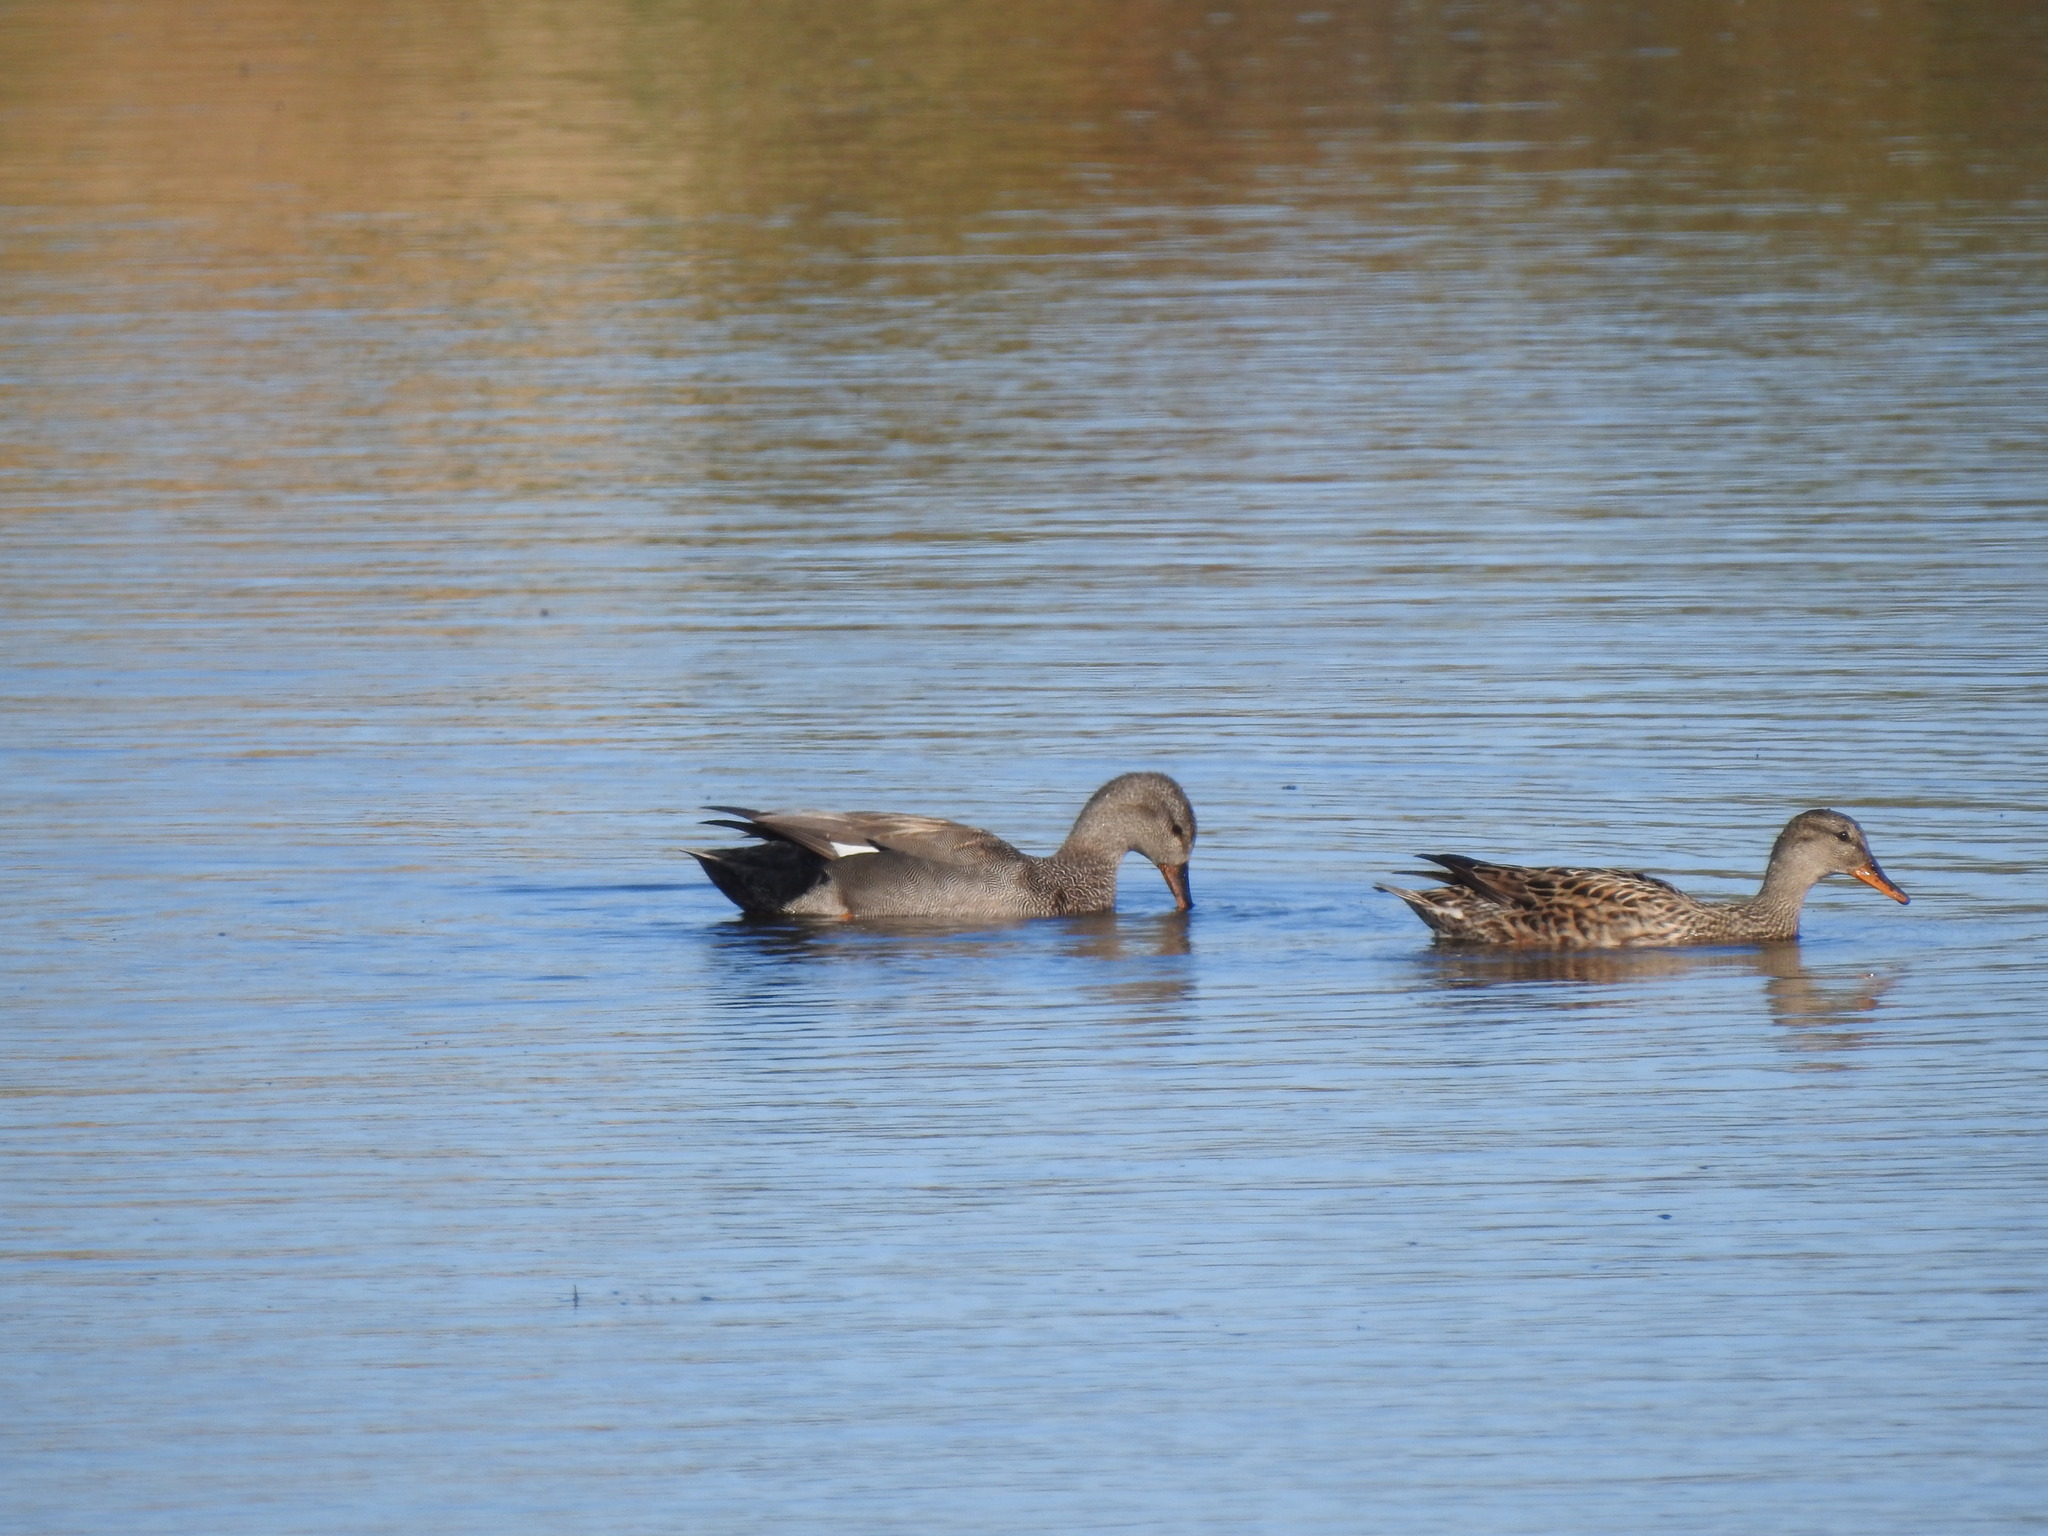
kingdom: Animalia
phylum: Chordata
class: Aves
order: Anseriformes
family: Anatidae
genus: Mareca
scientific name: Mareca strepera
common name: Gadwall
